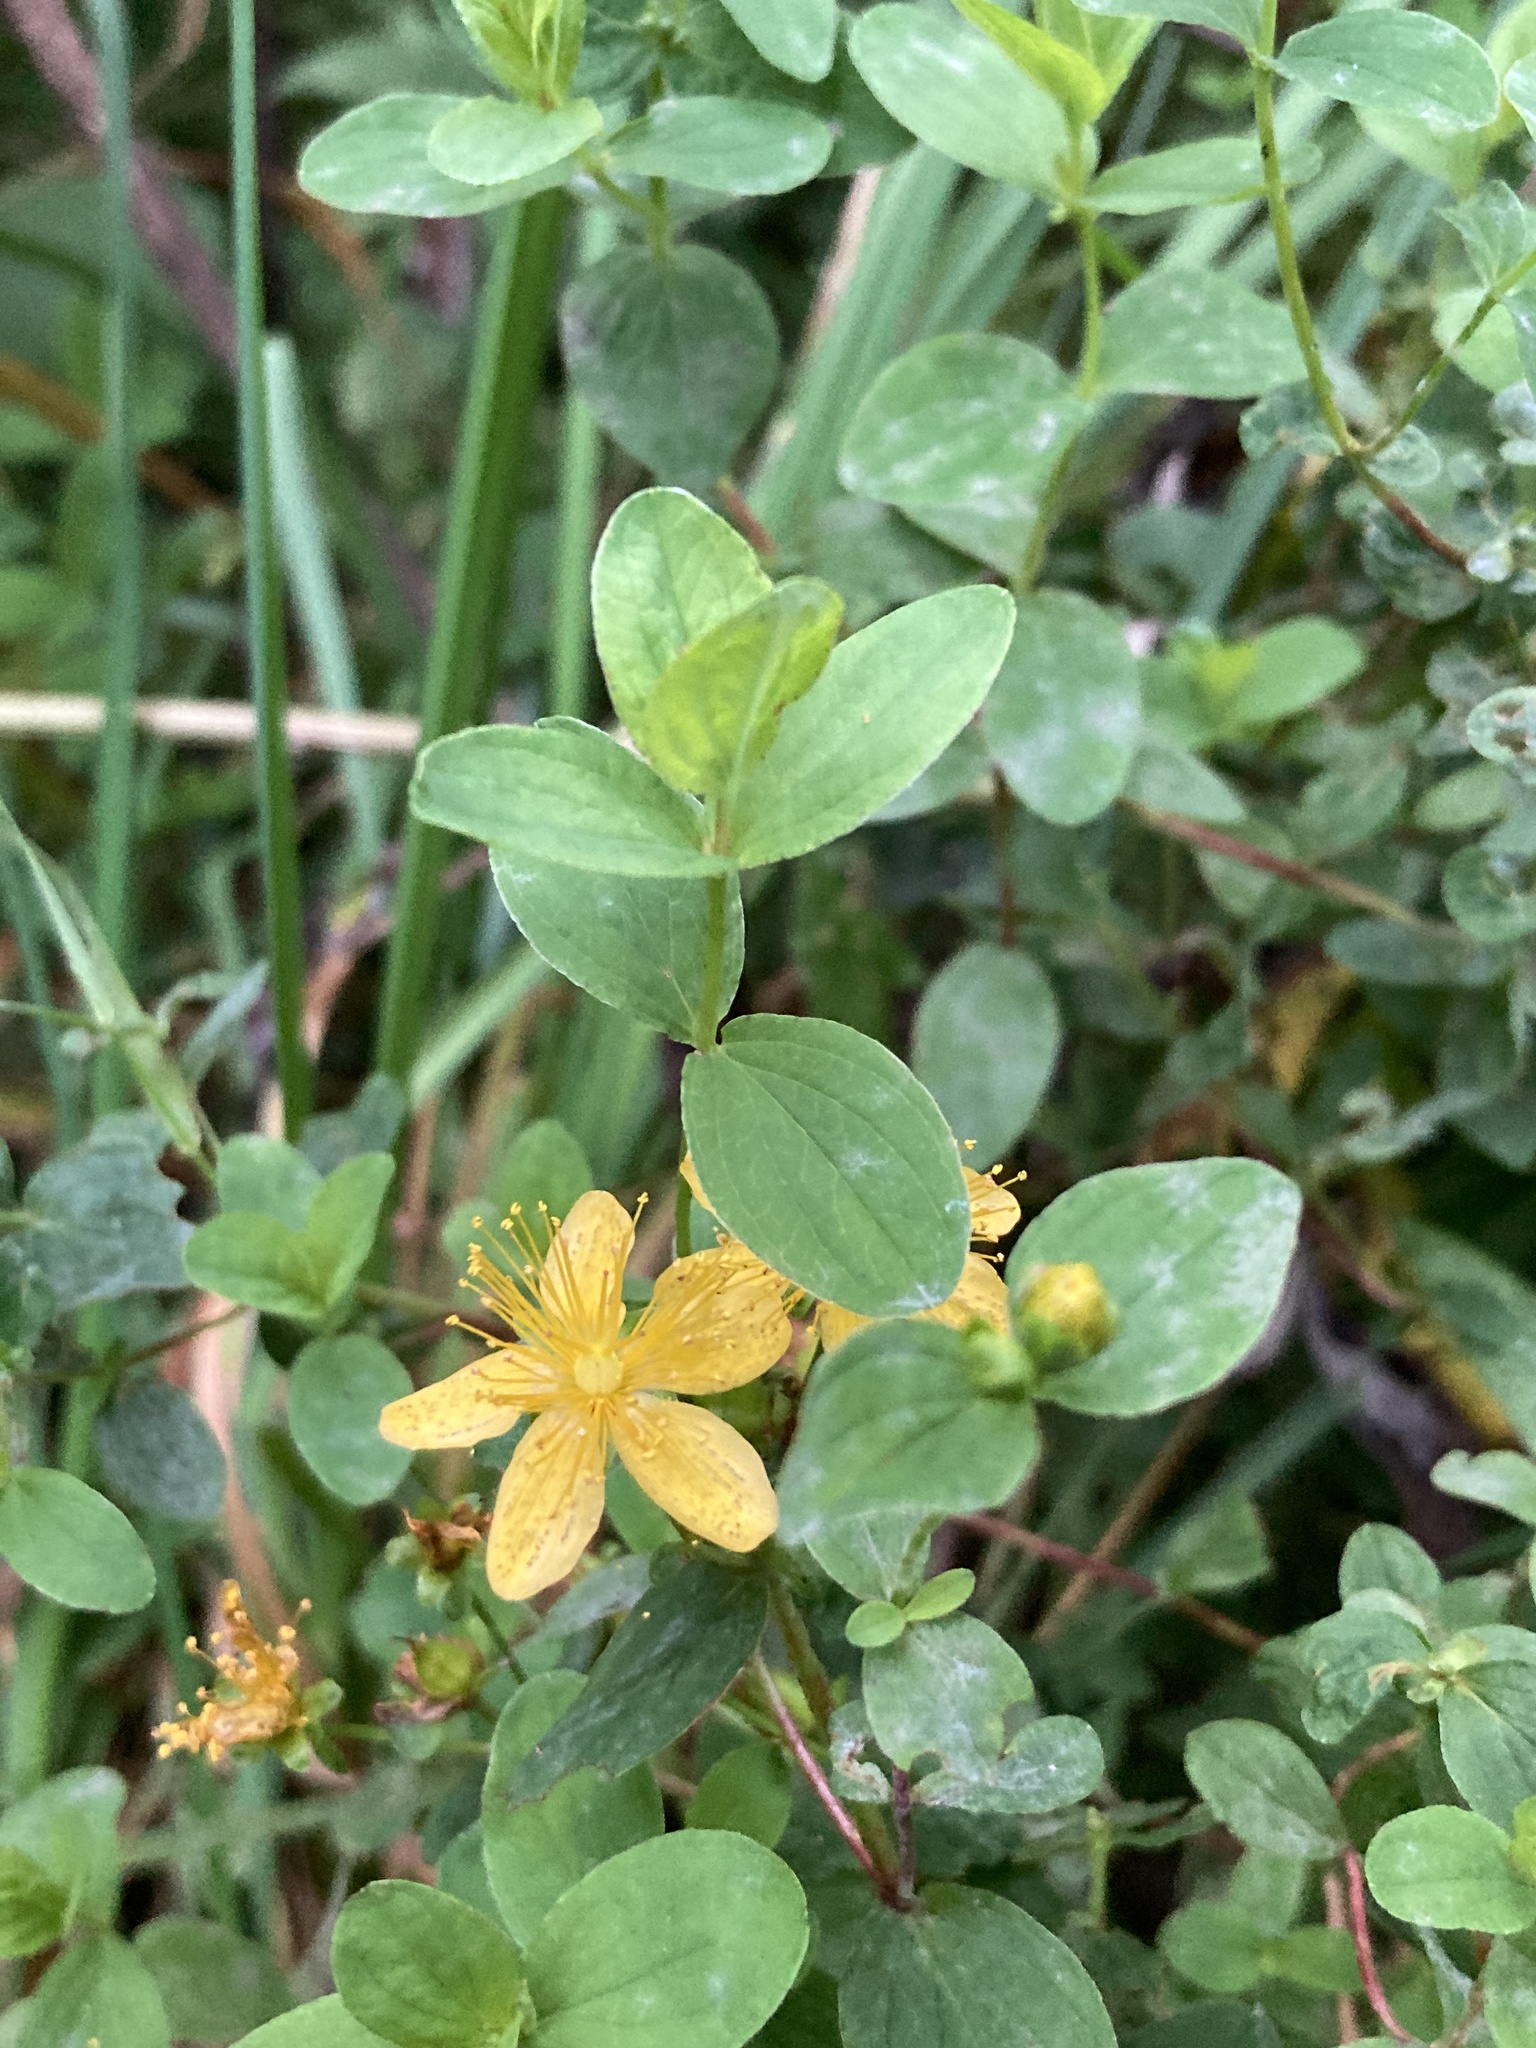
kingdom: Plantae
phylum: Tracheophyta
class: Magnoliopsida
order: Malpighiales
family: Hypericaceae
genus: Hypericum
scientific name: Hypericum maculatum
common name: Imperforate st. john's-wort
